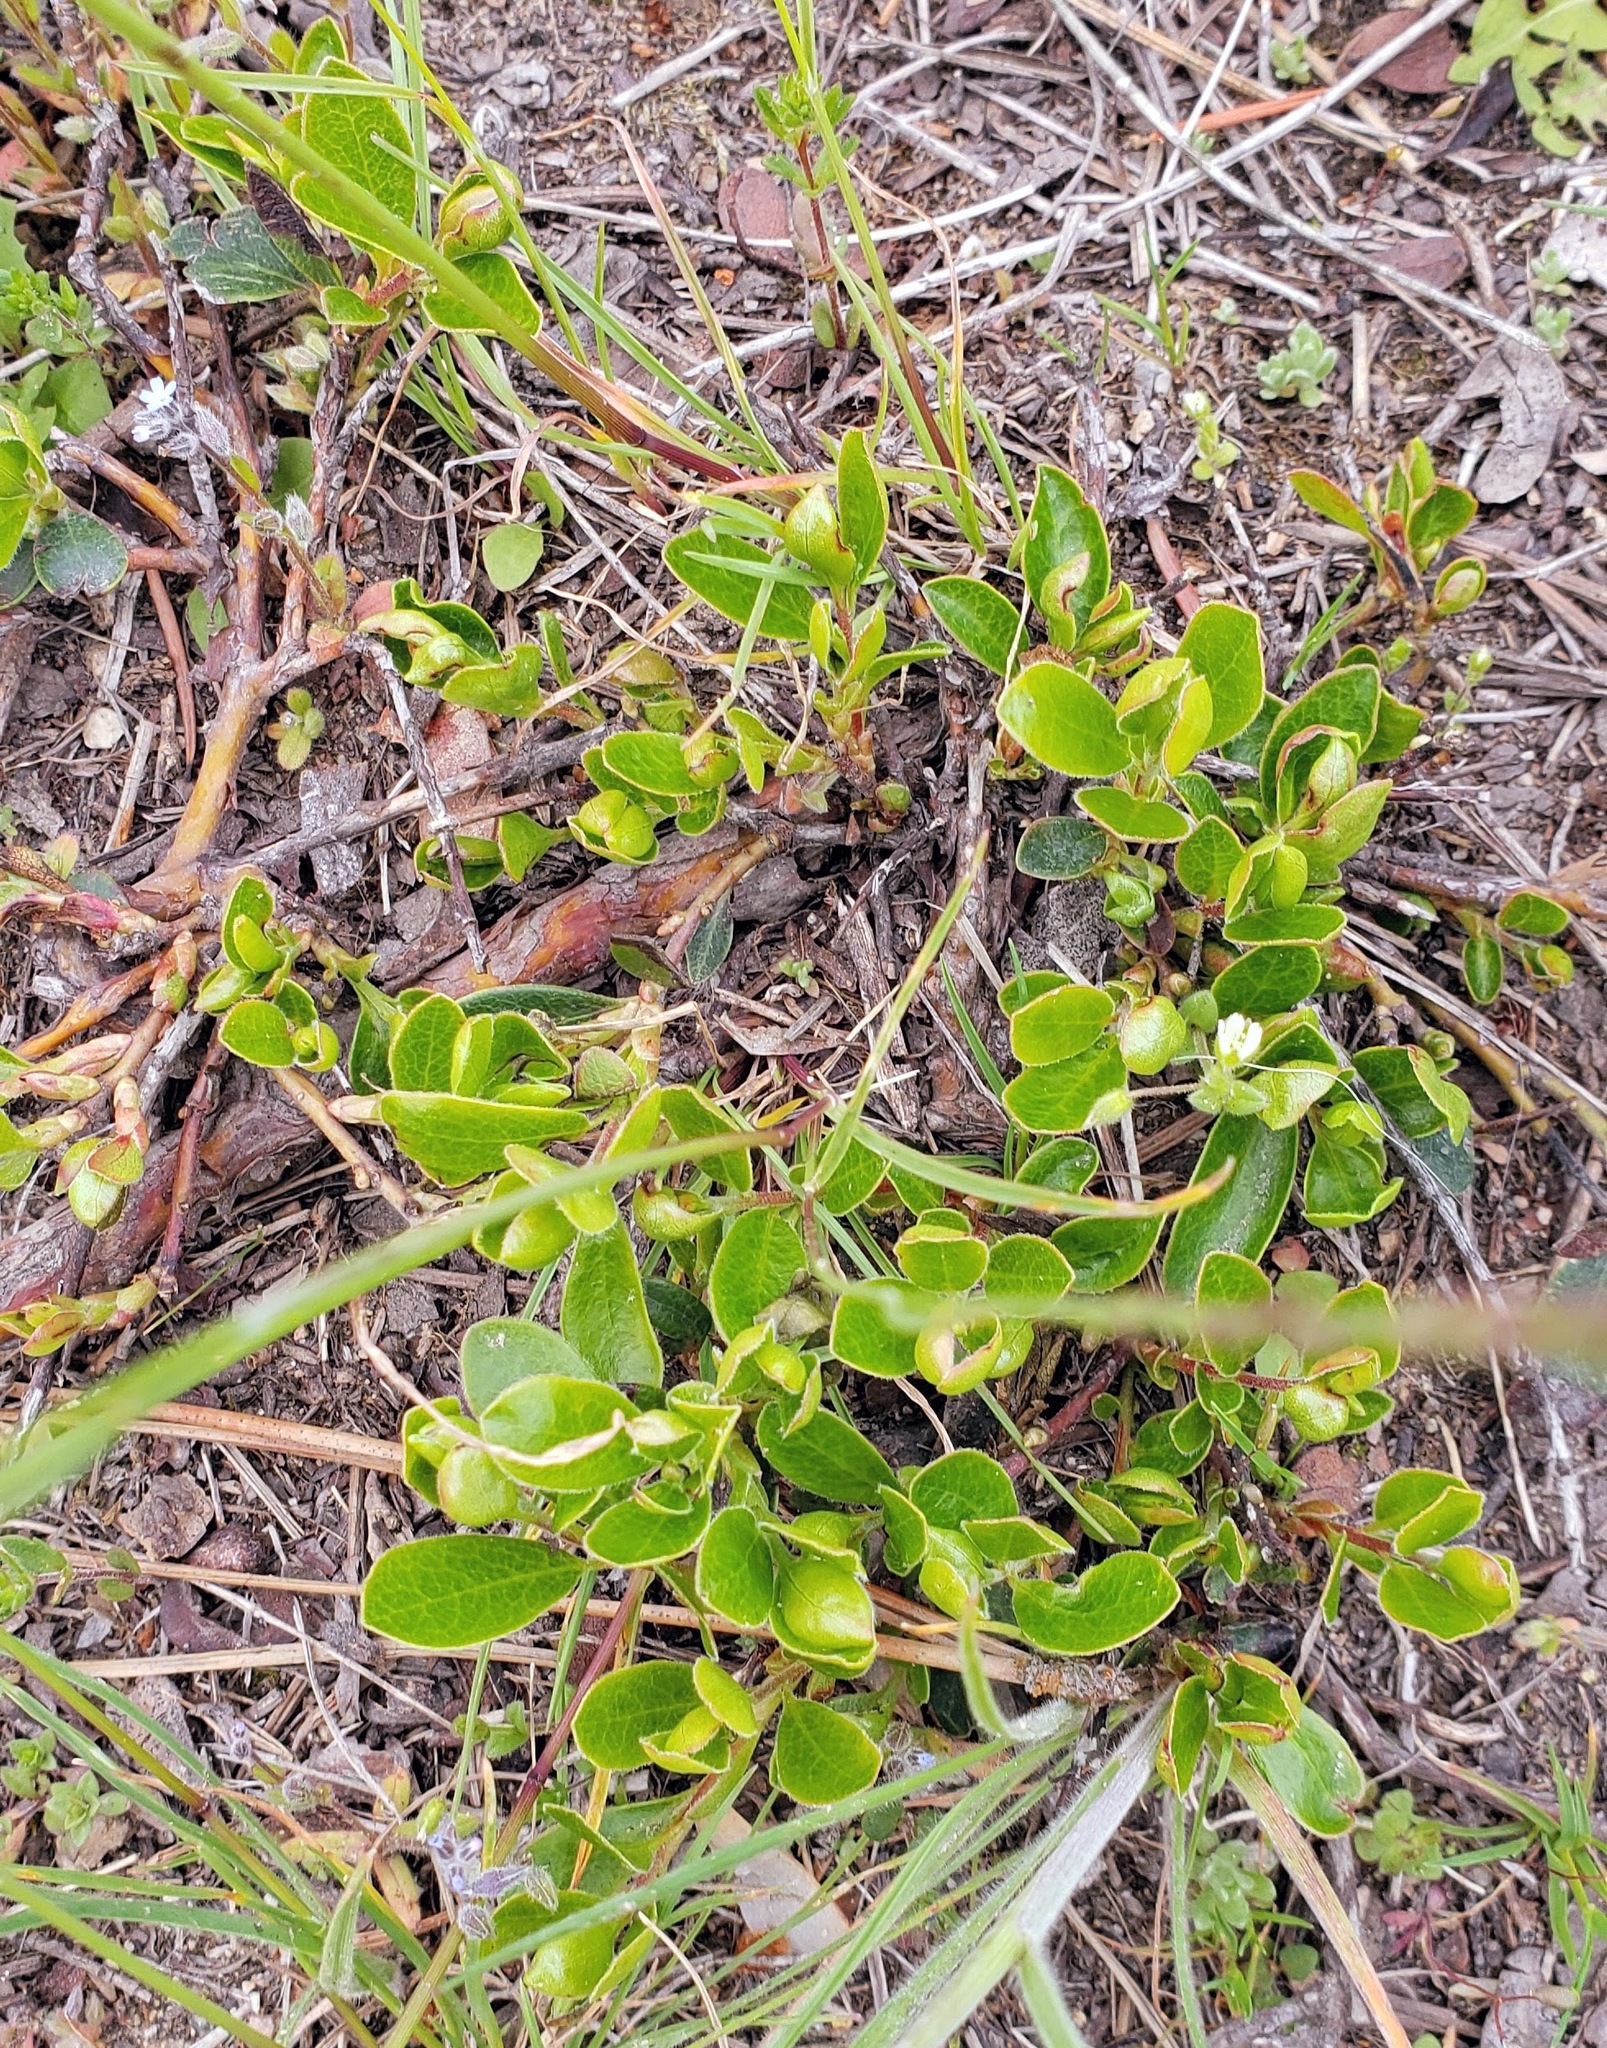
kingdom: Plantae
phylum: Tracheophyta
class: Magnoliopsida
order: Ericales
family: Ericaceae
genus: Arctostaphylos
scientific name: Arctostaphylos uva-ursi
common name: Bearberry
